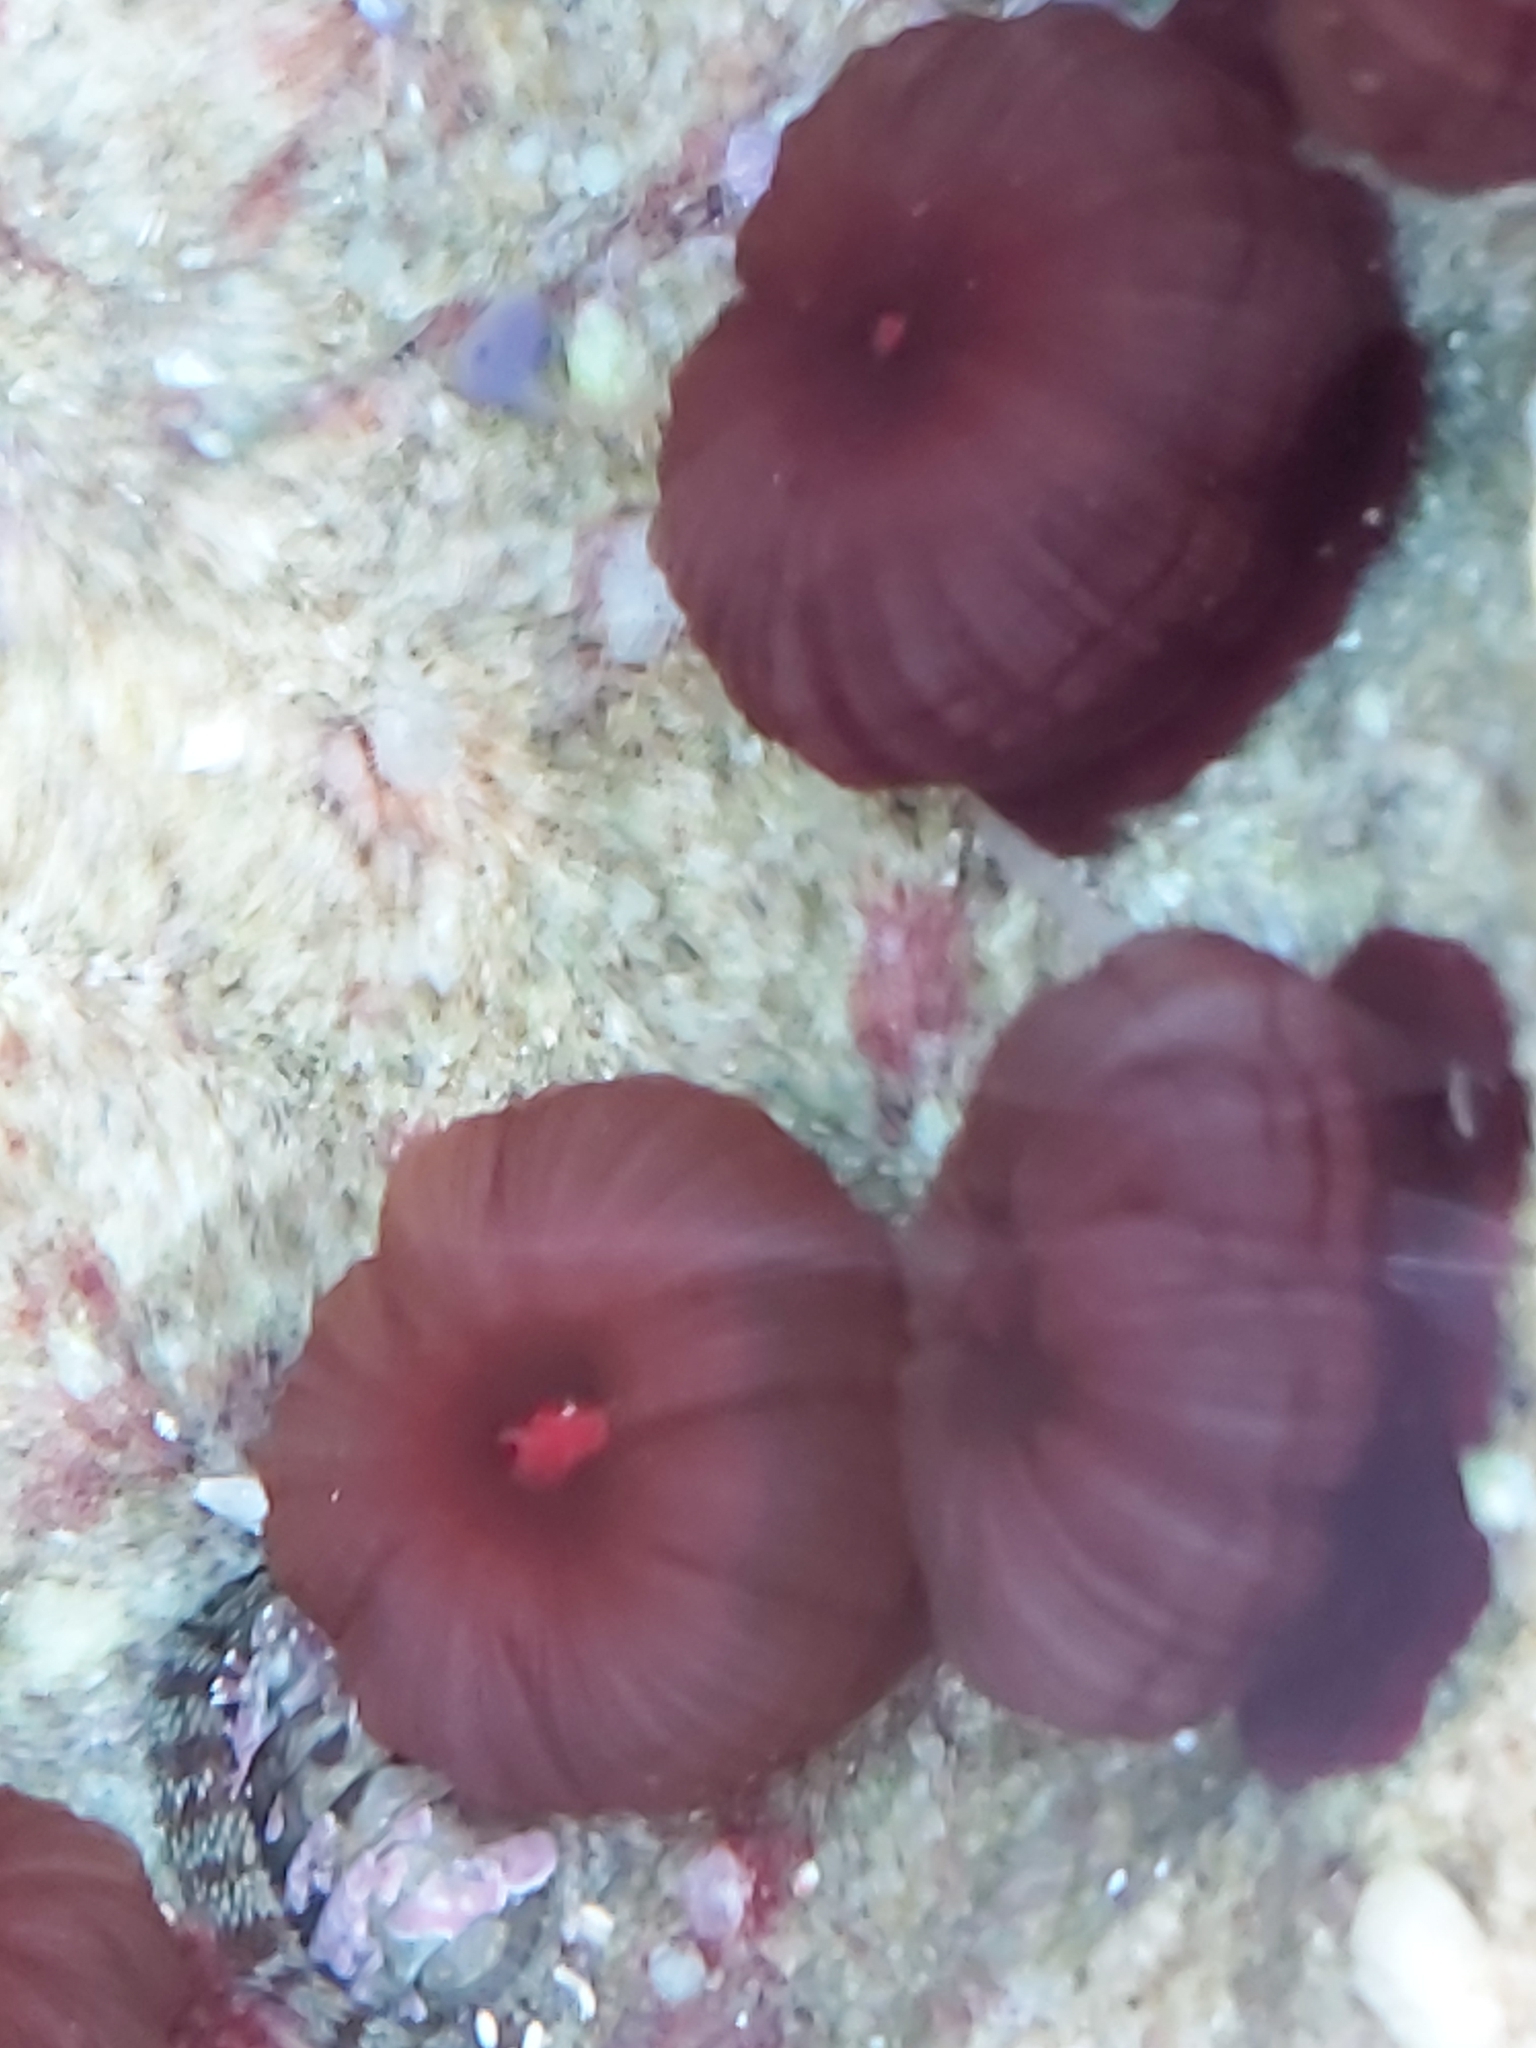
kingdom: Animalia
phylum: Cnidaria
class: Anthozoa
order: Actiniaria
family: Actiniidae
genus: Actinia
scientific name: Actinia tenebrosa
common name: Waratah anemone
